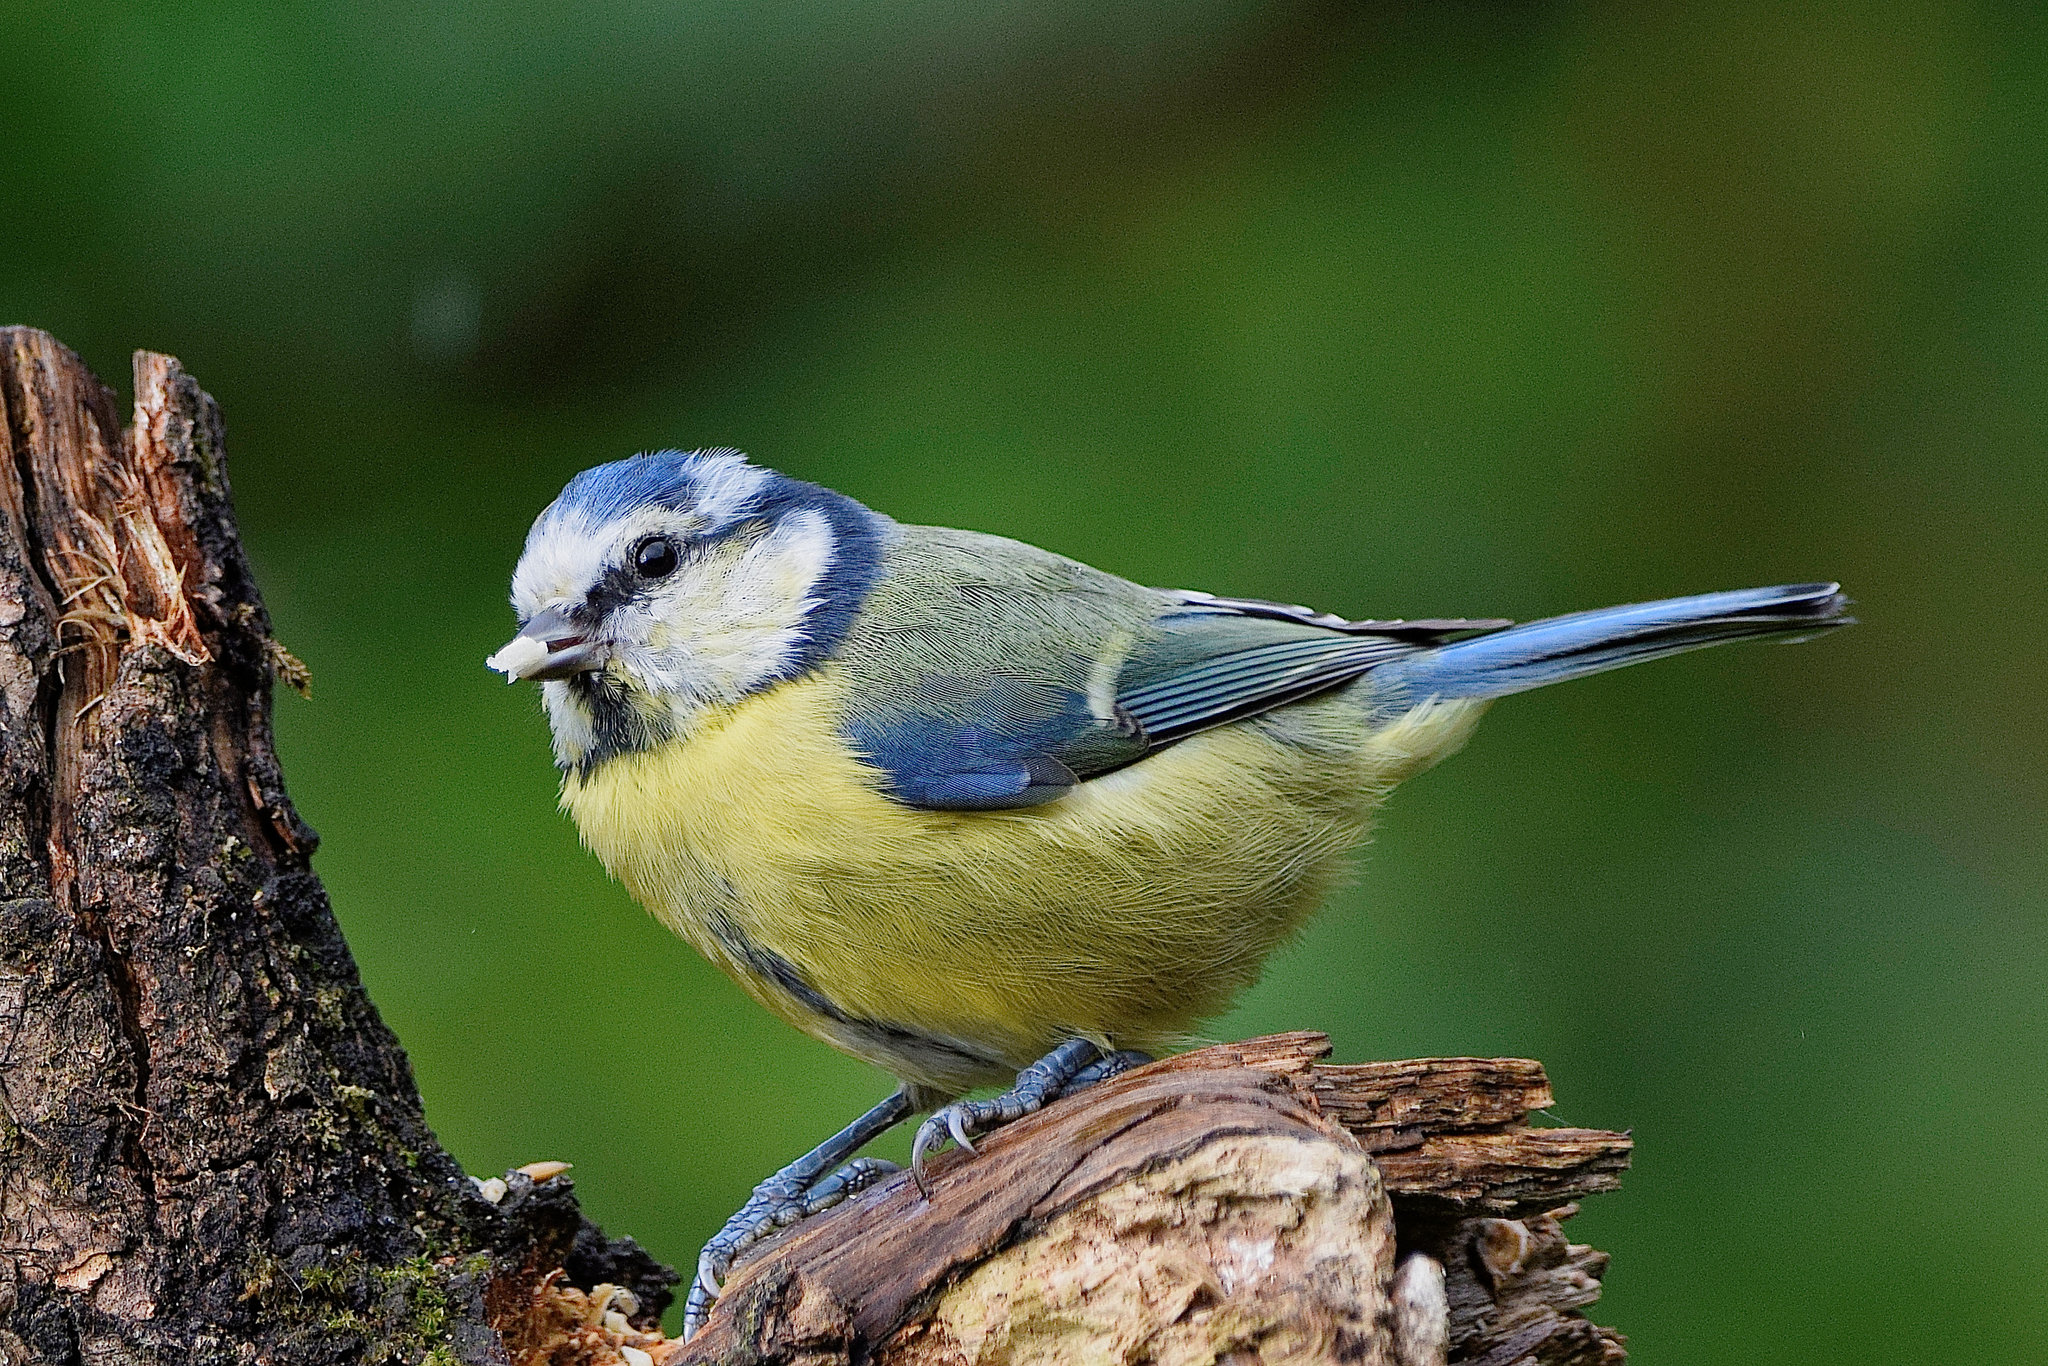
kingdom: Animalia
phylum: Chordata
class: Aves
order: Passeriformes
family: Paridae
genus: Cyanistes
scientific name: Cyanistes caeruleus
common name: Eurasian blue tit
